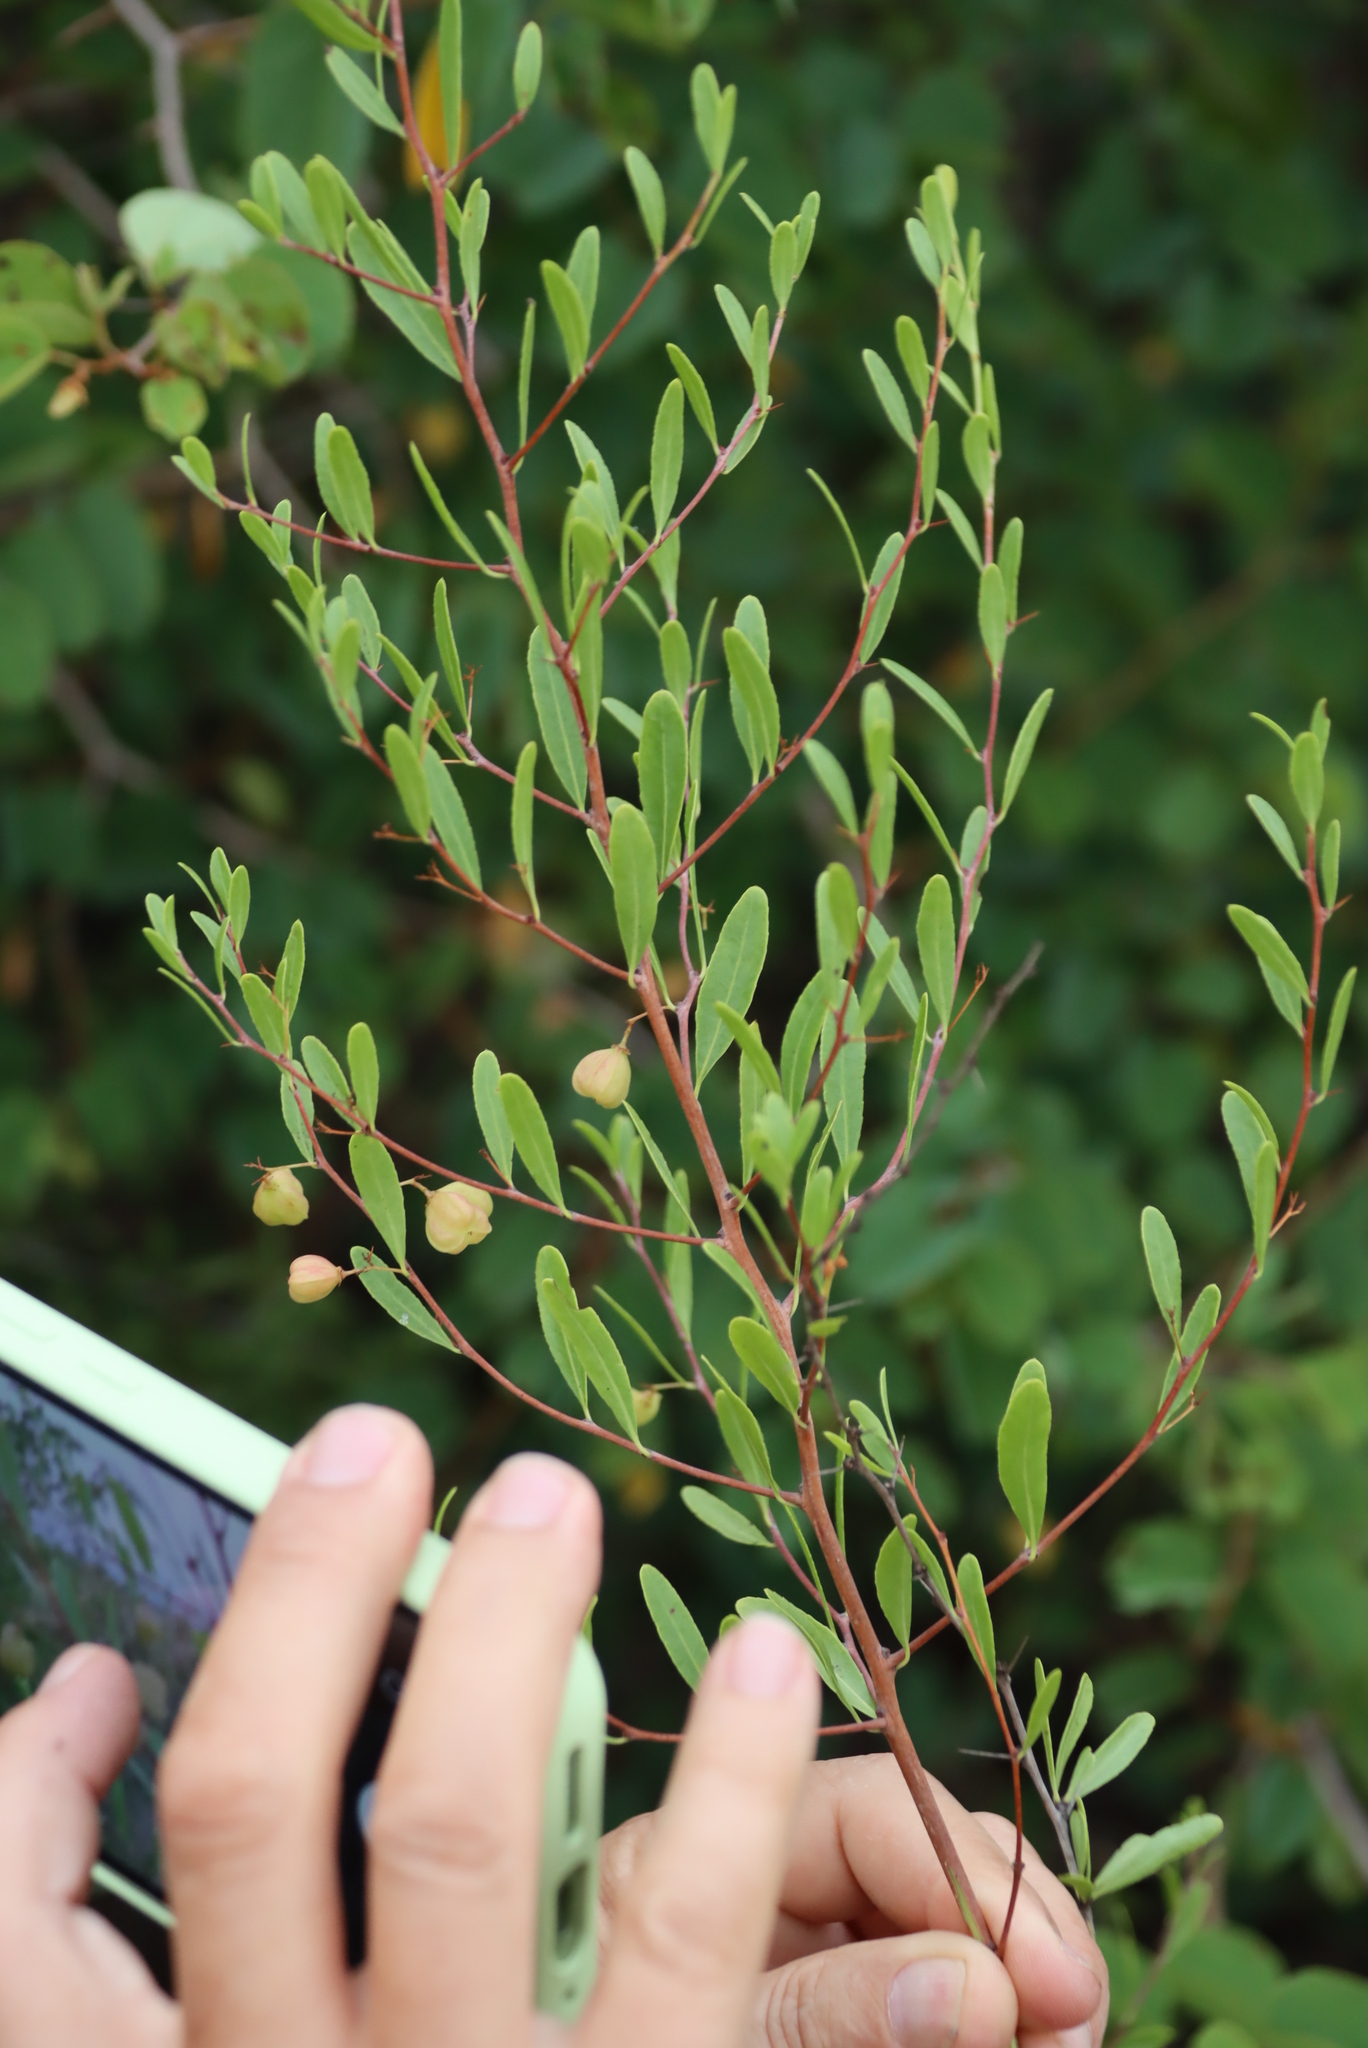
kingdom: Plantae
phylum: Tracheophyta
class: Magnoliopsida
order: Celastrales
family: Celastraceae
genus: Gymnosporia
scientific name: Gymnosporia tenuispina
